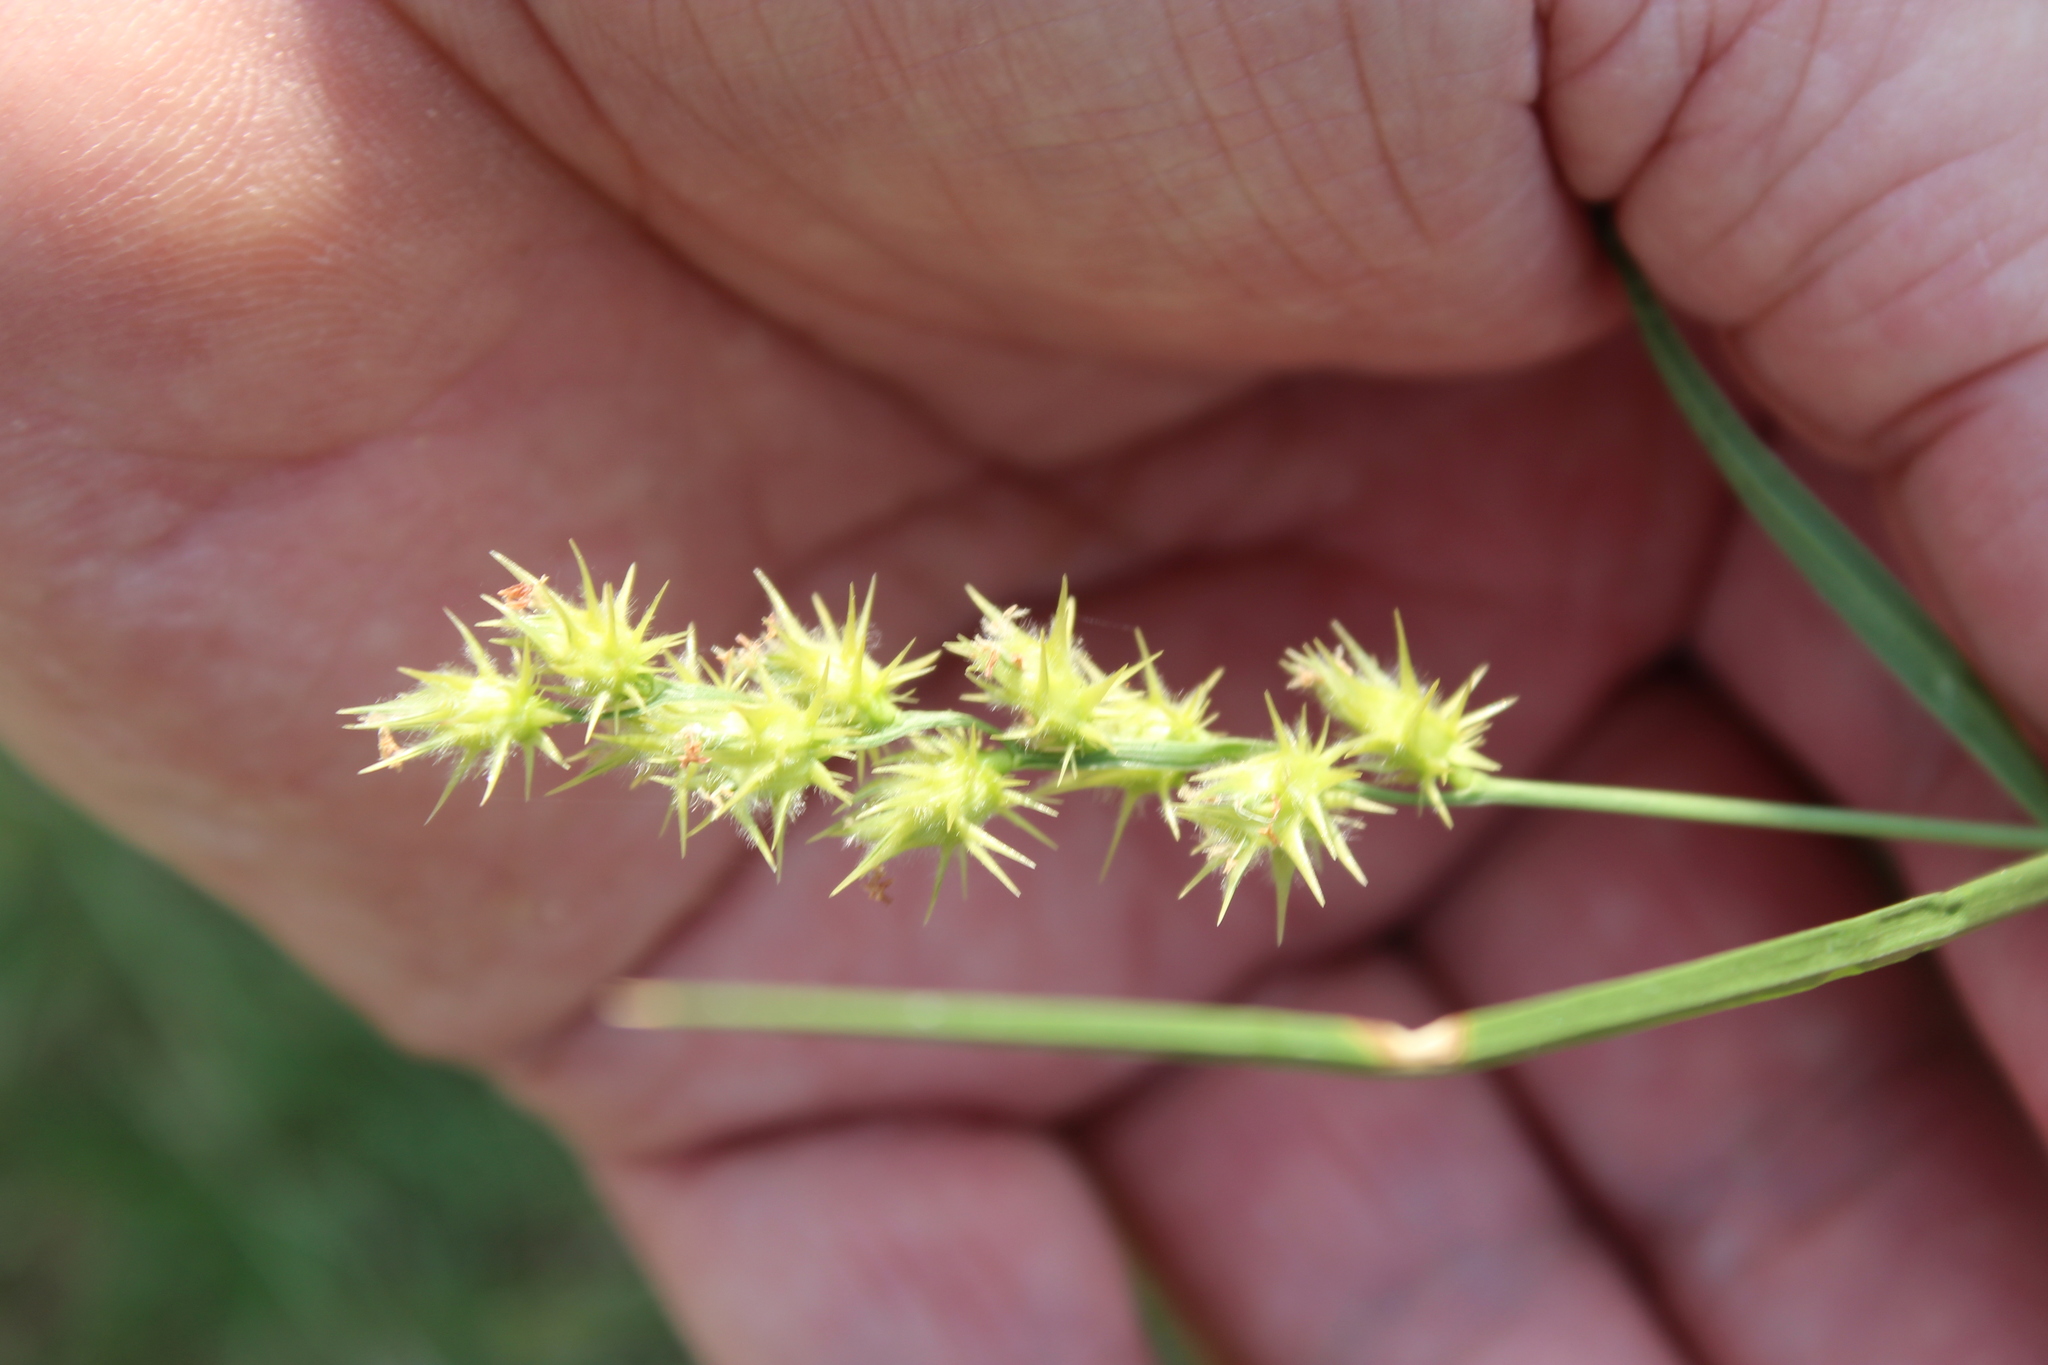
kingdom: Plantae
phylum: Tracheophyta
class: Liliopsida
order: Poales
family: Poaceae
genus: Cenchrus
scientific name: Cenchrus spinifex
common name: Coast sandbur
